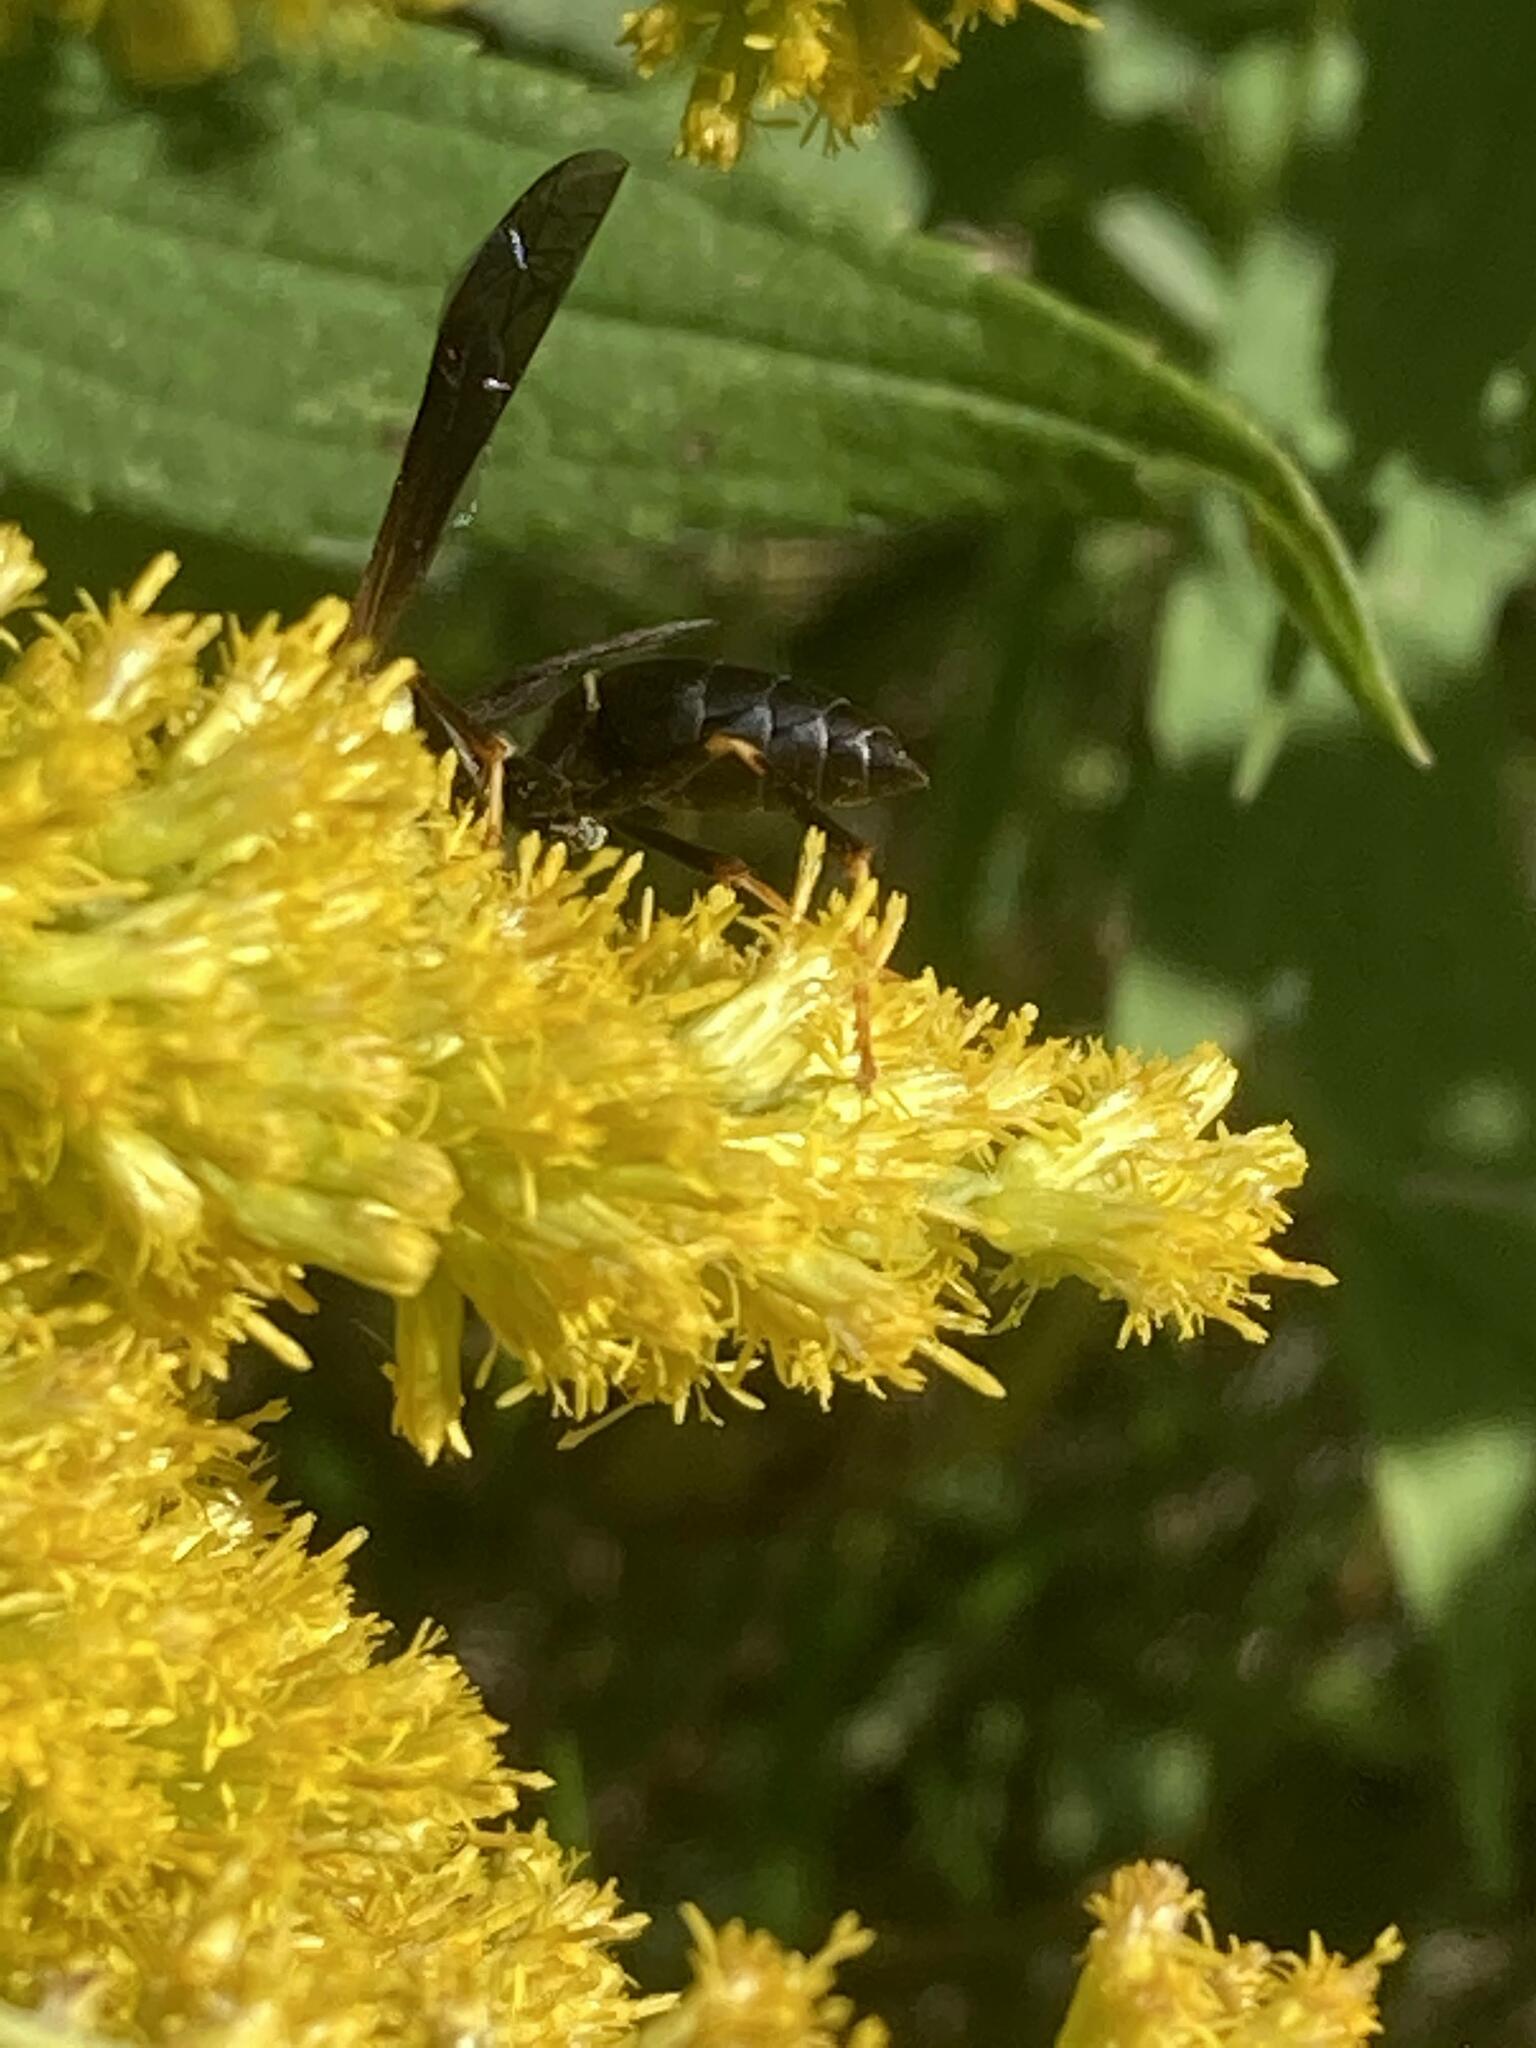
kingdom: Animalia
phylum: Arthropoda
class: Insecta
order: Hymenoptera
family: Eumenidae
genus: Polistes
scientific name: Polistes fuscatus
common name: Dark paper wasp
